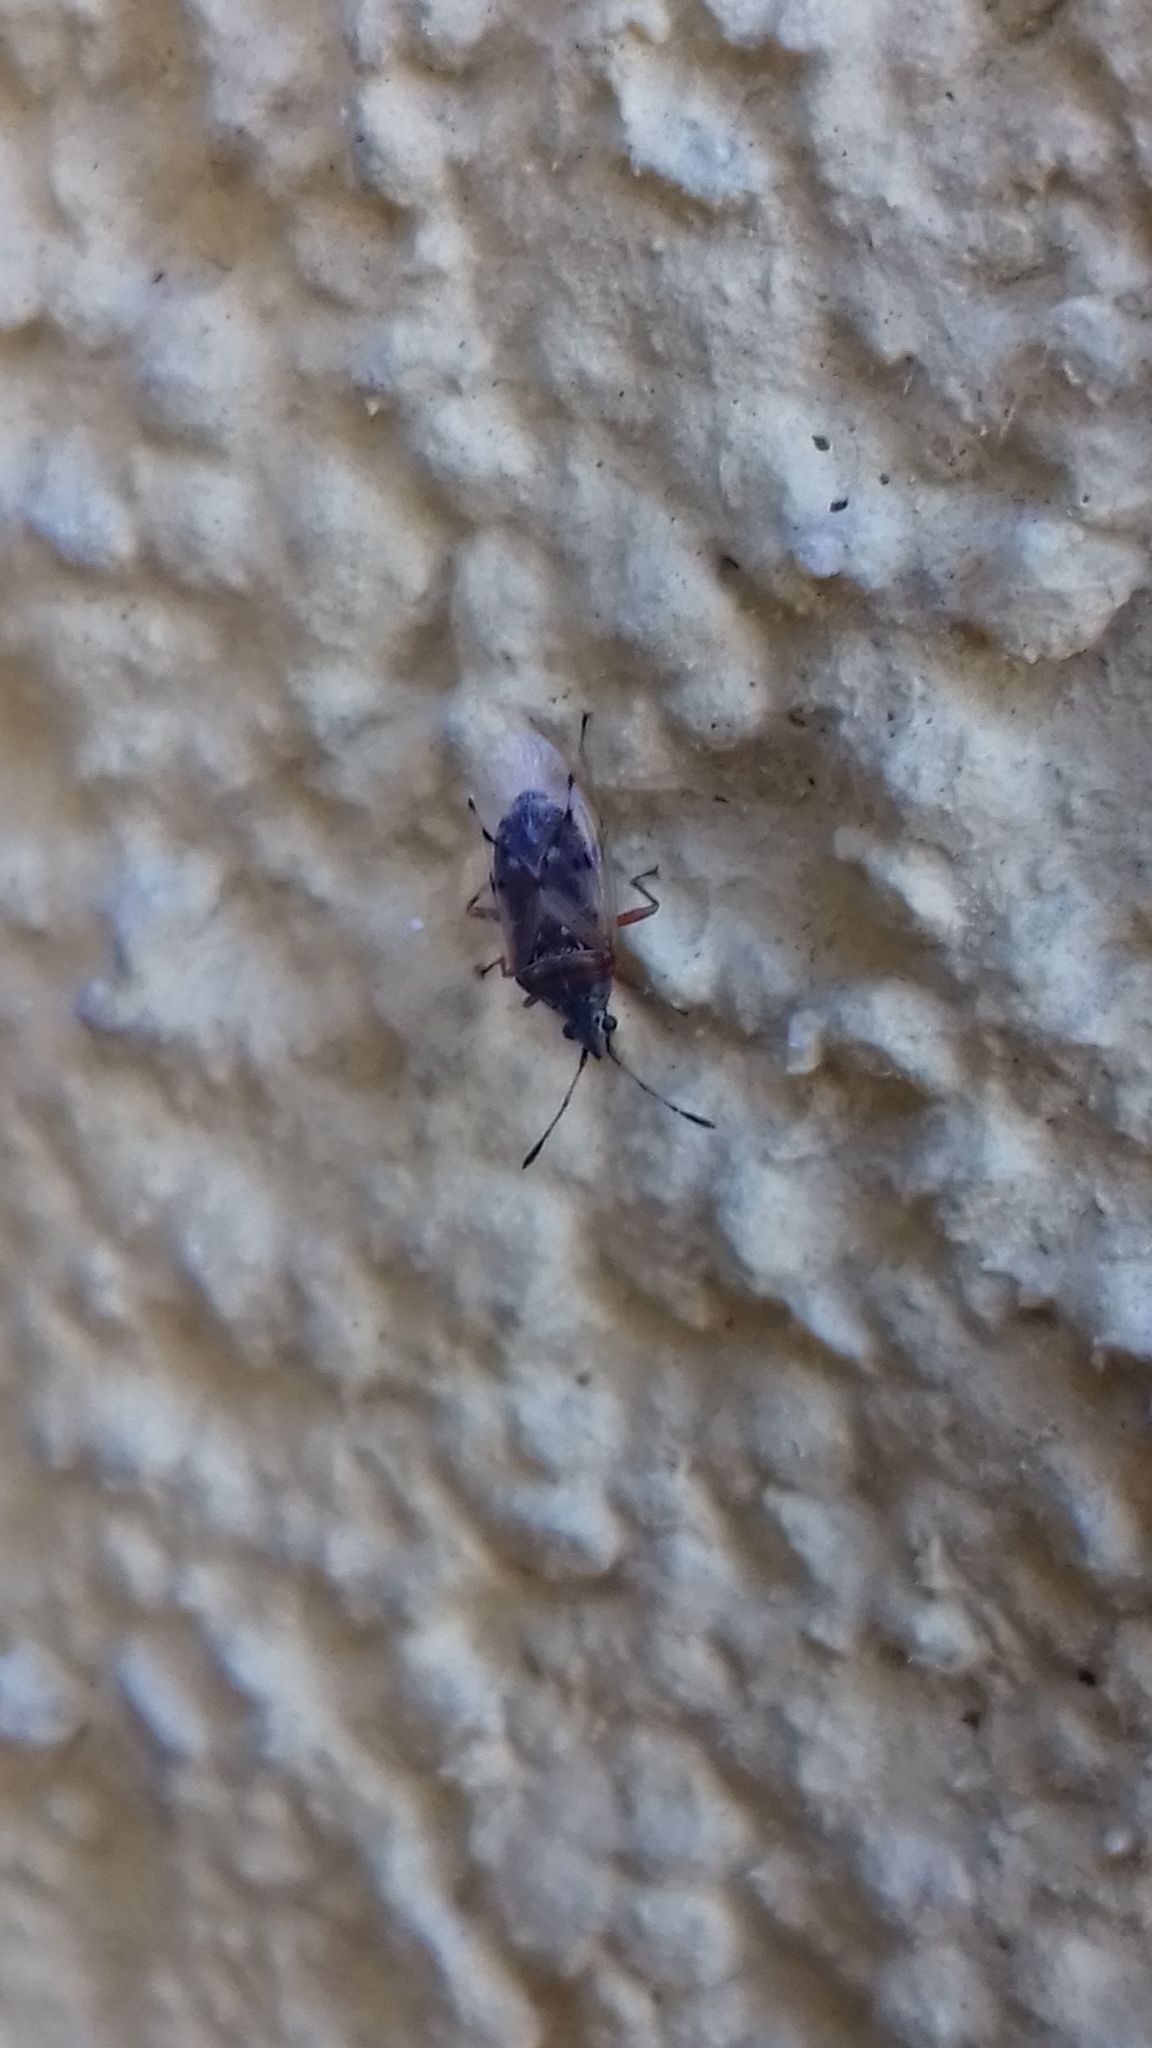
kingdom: Animalia
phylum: Arthropoda
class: Insecta
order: Hemiptera
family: Lygaeidae
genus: Kleidocerys
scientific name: Kleidocerys resedae
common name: Birch catkin bug
